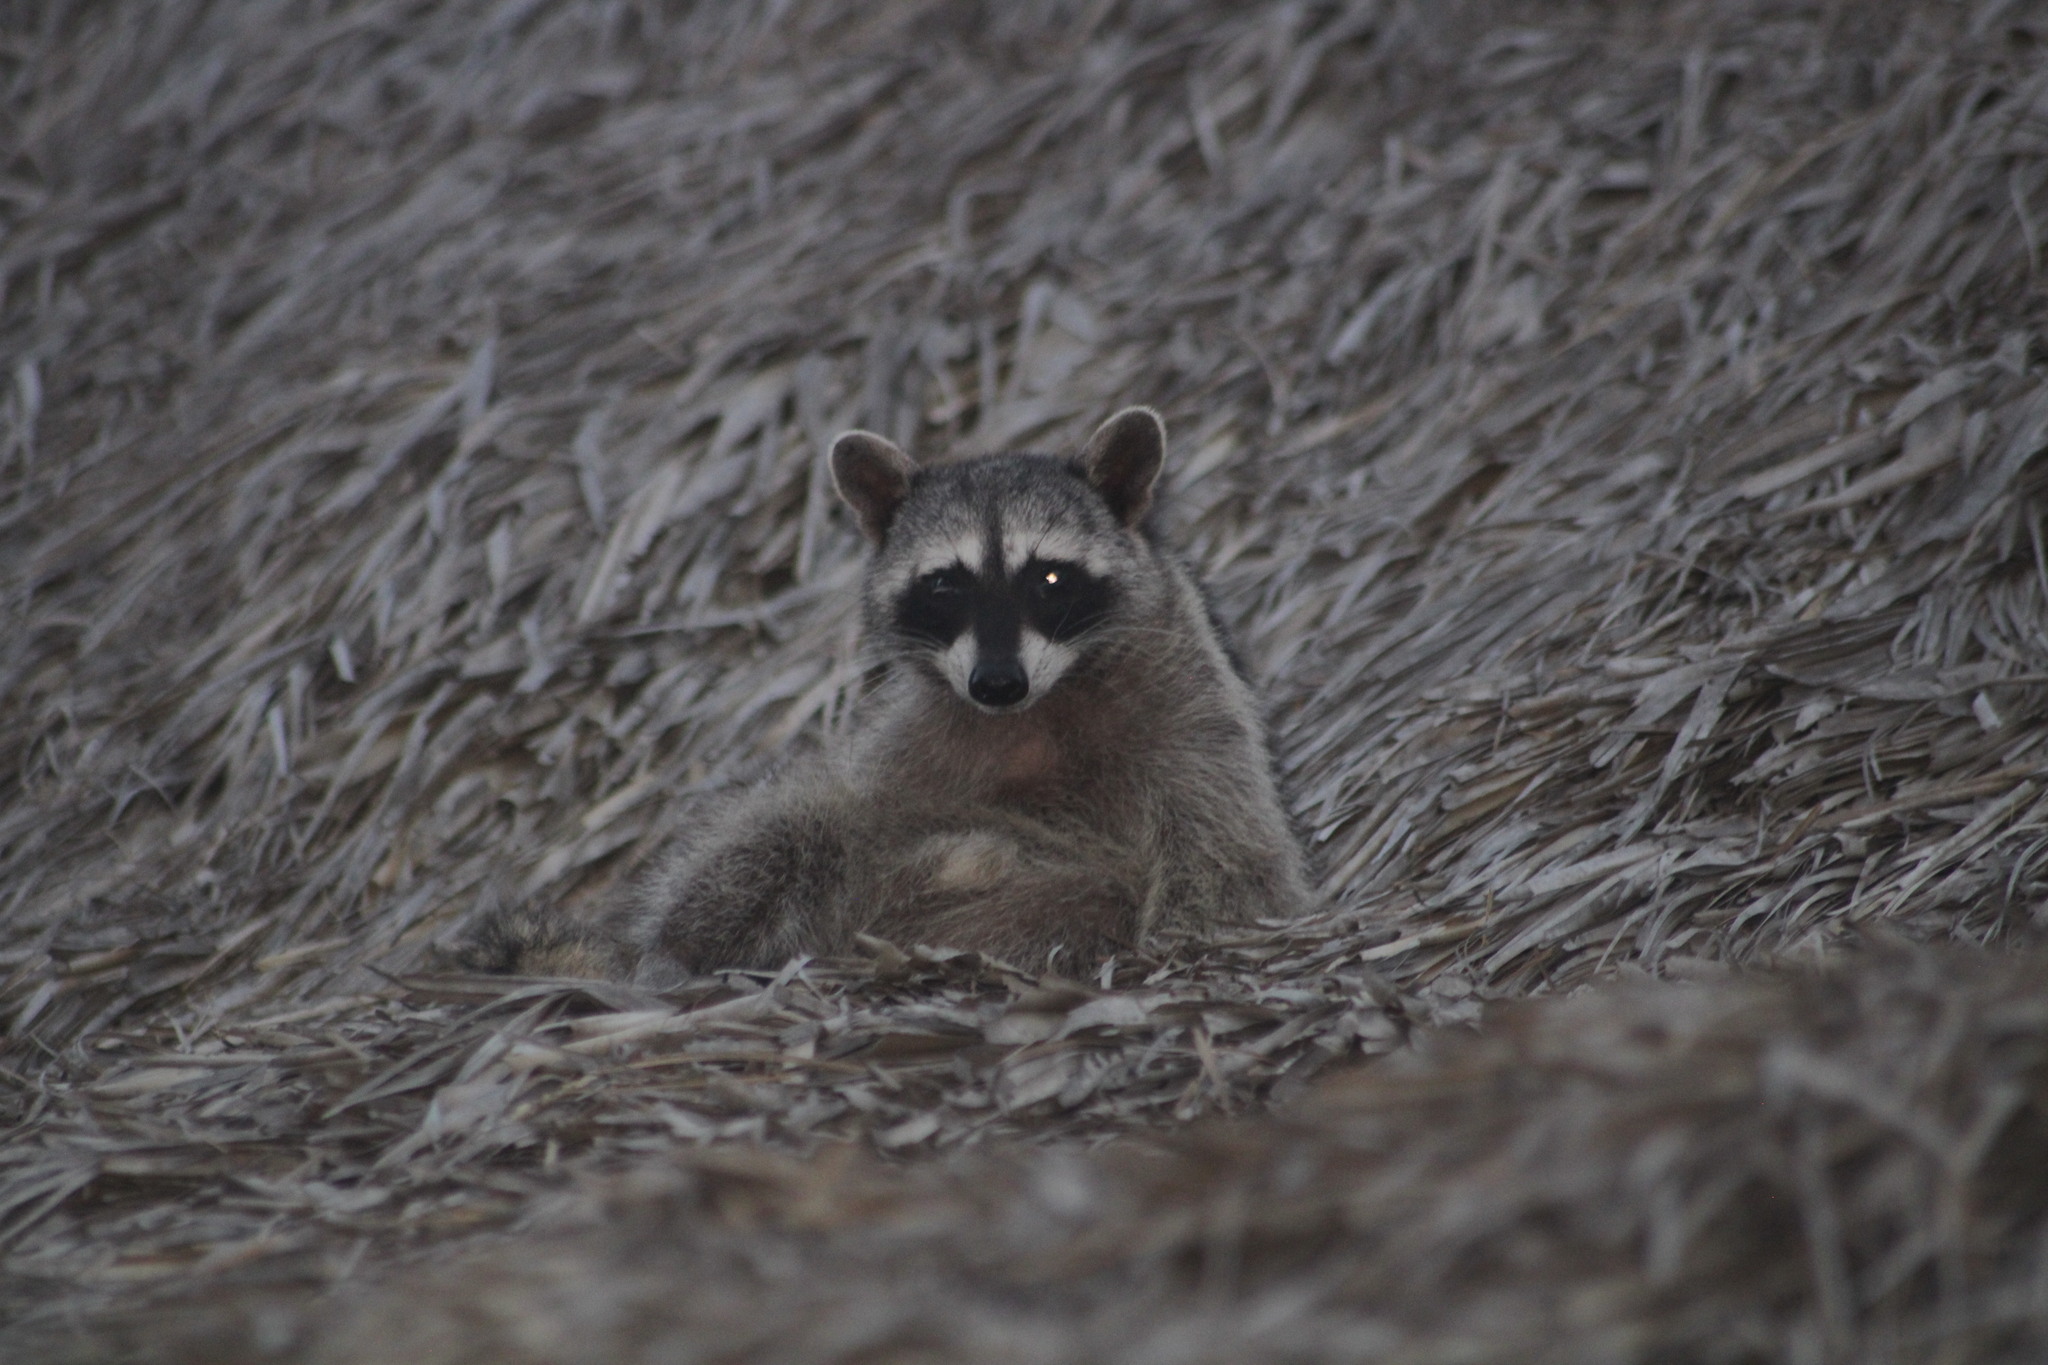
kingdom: Animalia
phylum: Chordata
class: Mammalia
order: Carnivora
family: Procyonidae
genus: Procyon
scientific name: Procyon lotor
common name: Raccoon
